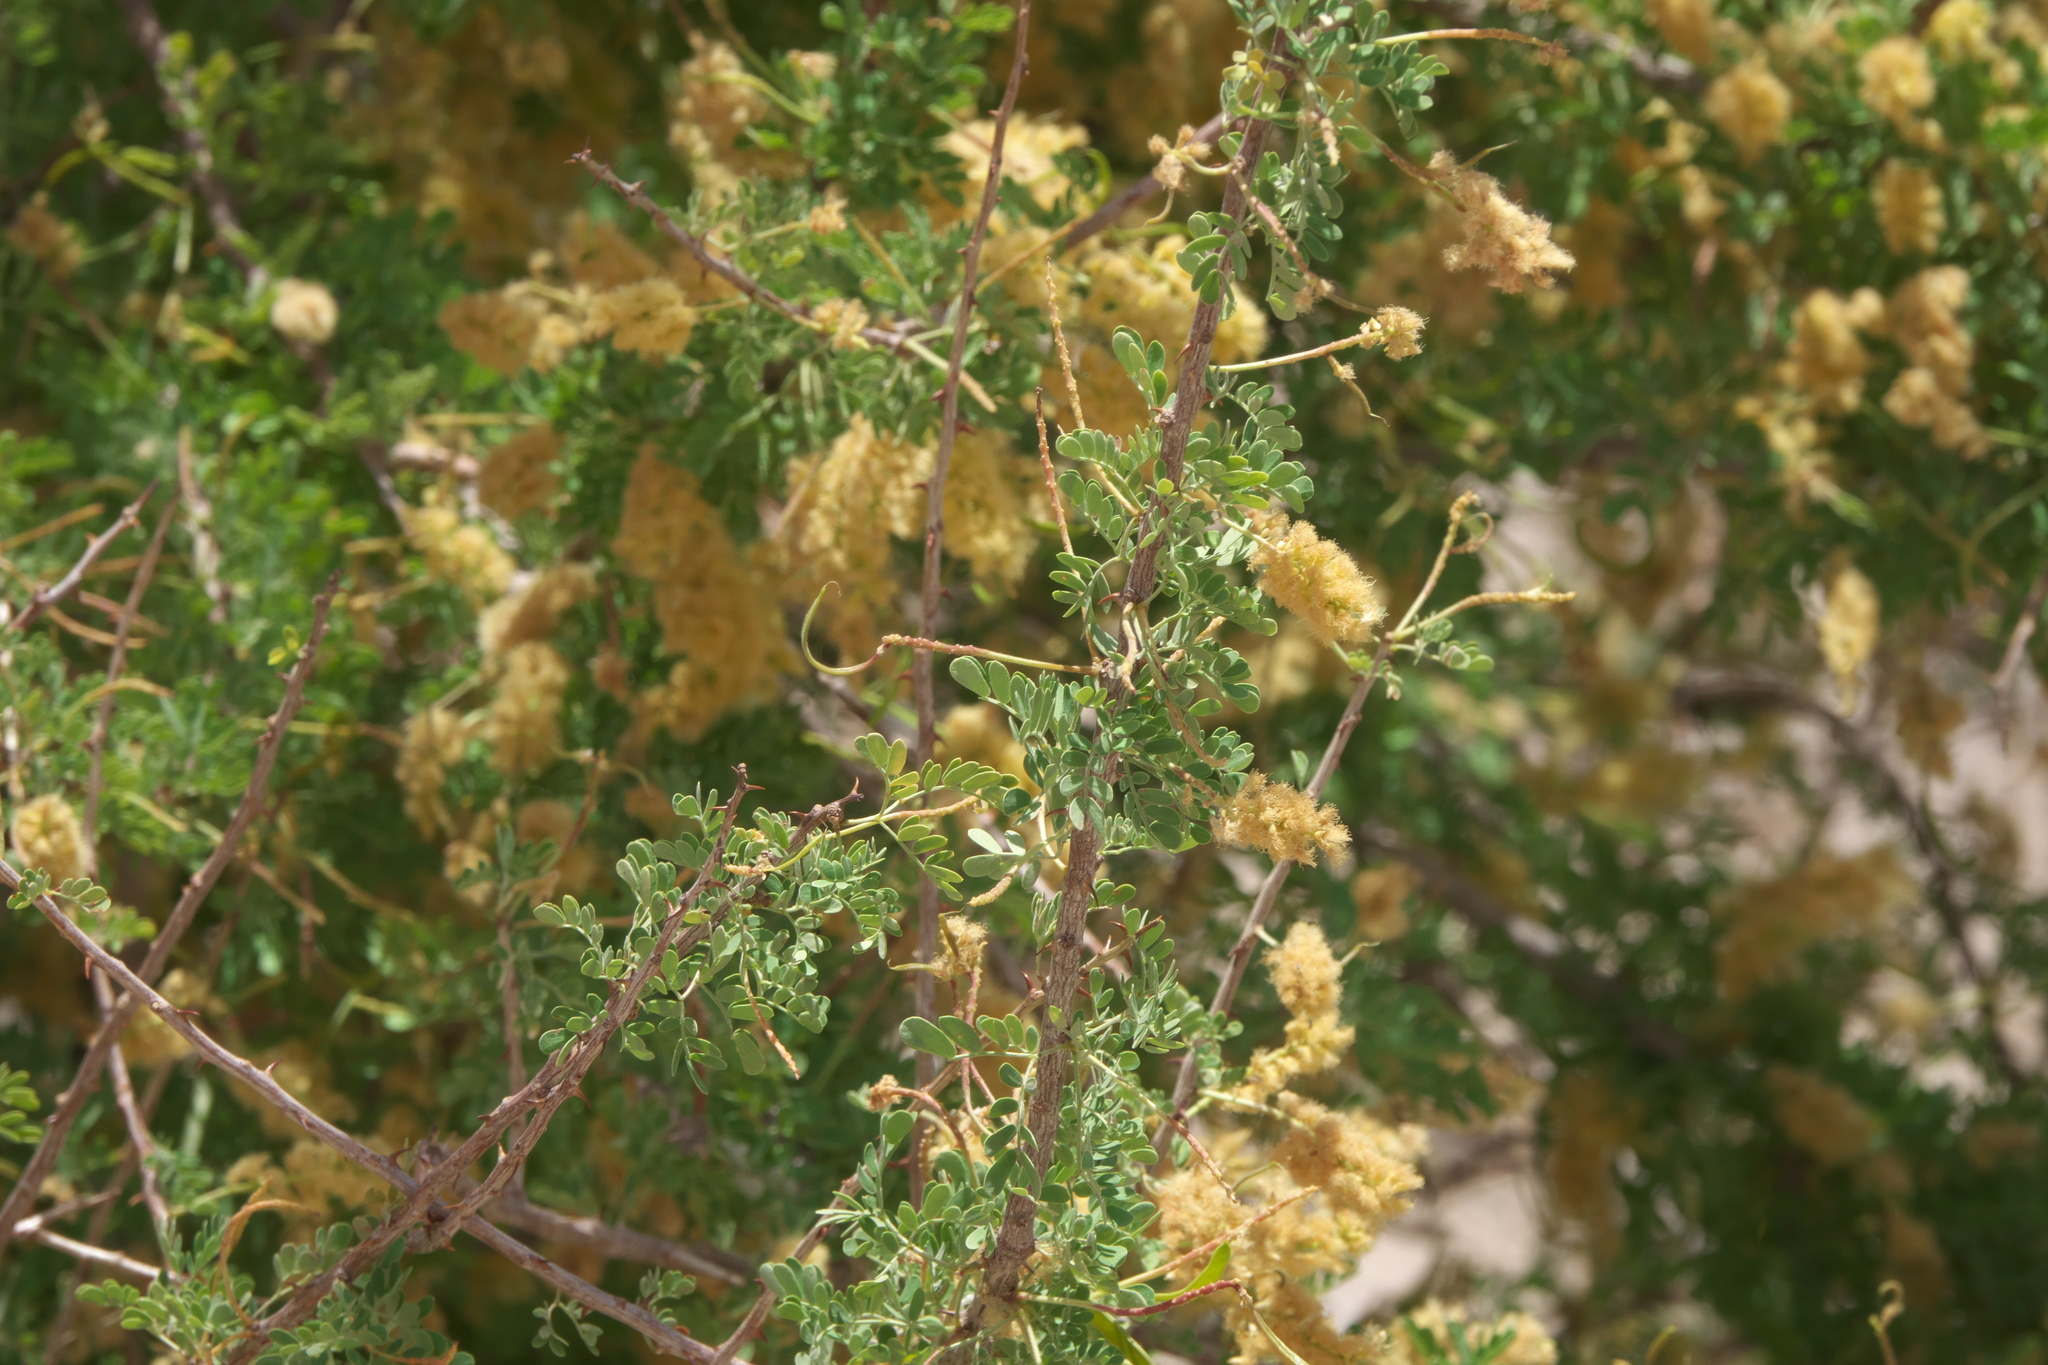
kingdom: Plantae
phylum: Tracheophyta
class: Magnoliopsida
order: Fabales
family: Fabaceae
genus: Senegalia
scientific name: Senegalia greggii
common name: Texas-mimosa
